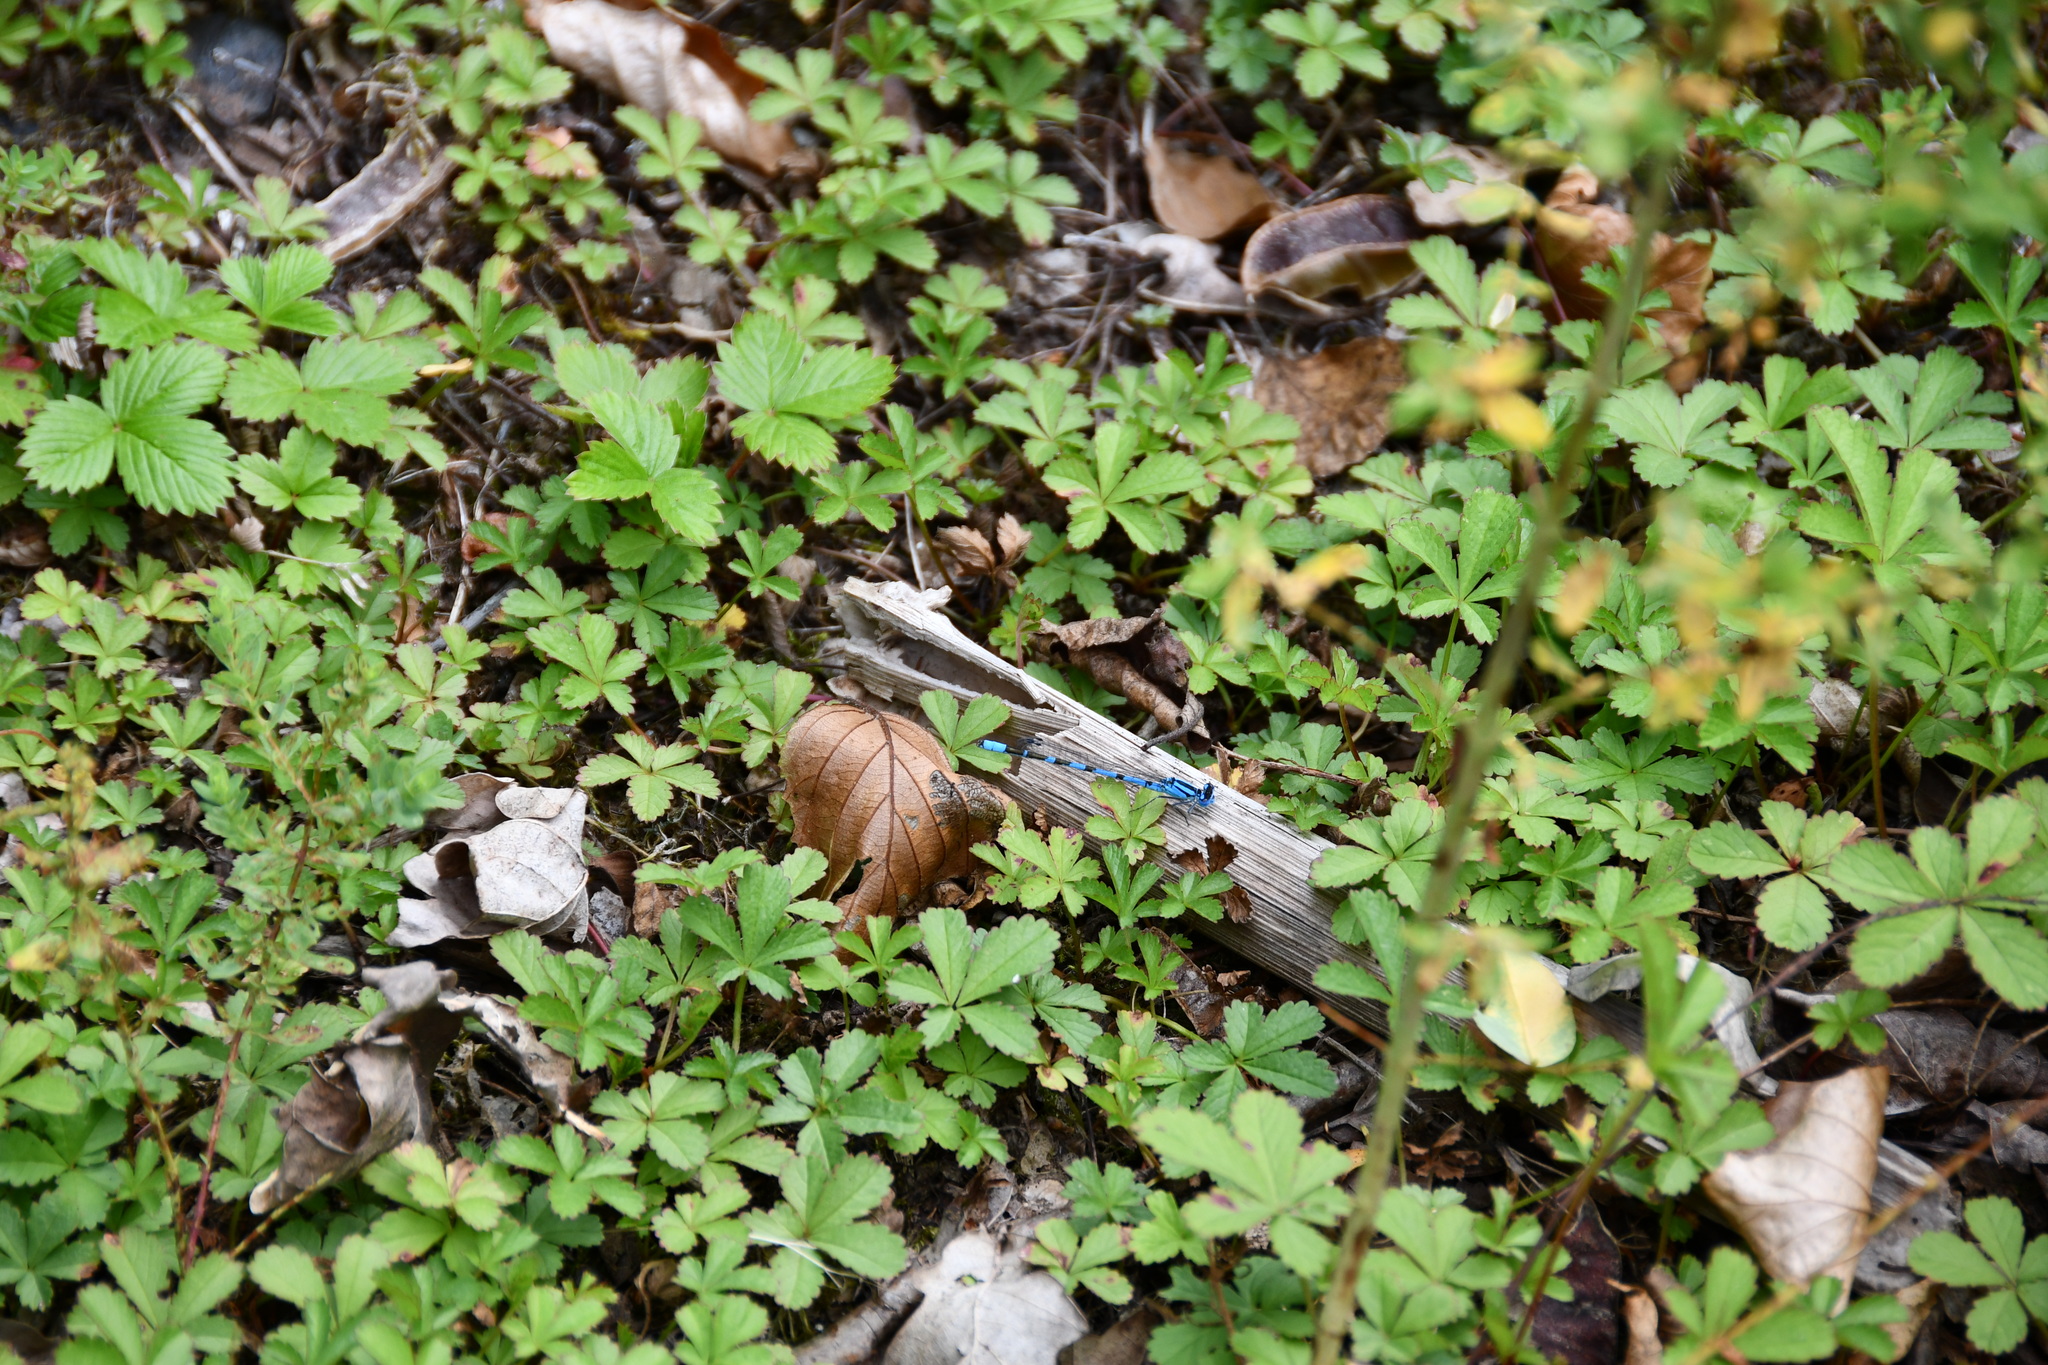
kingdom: Animalia
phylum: Arthropoda
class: Insecta
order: Odonata
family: Coenagrionidae
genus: Enallagma
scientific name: Enallagma cyathigerum
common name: Common blue damselfly
